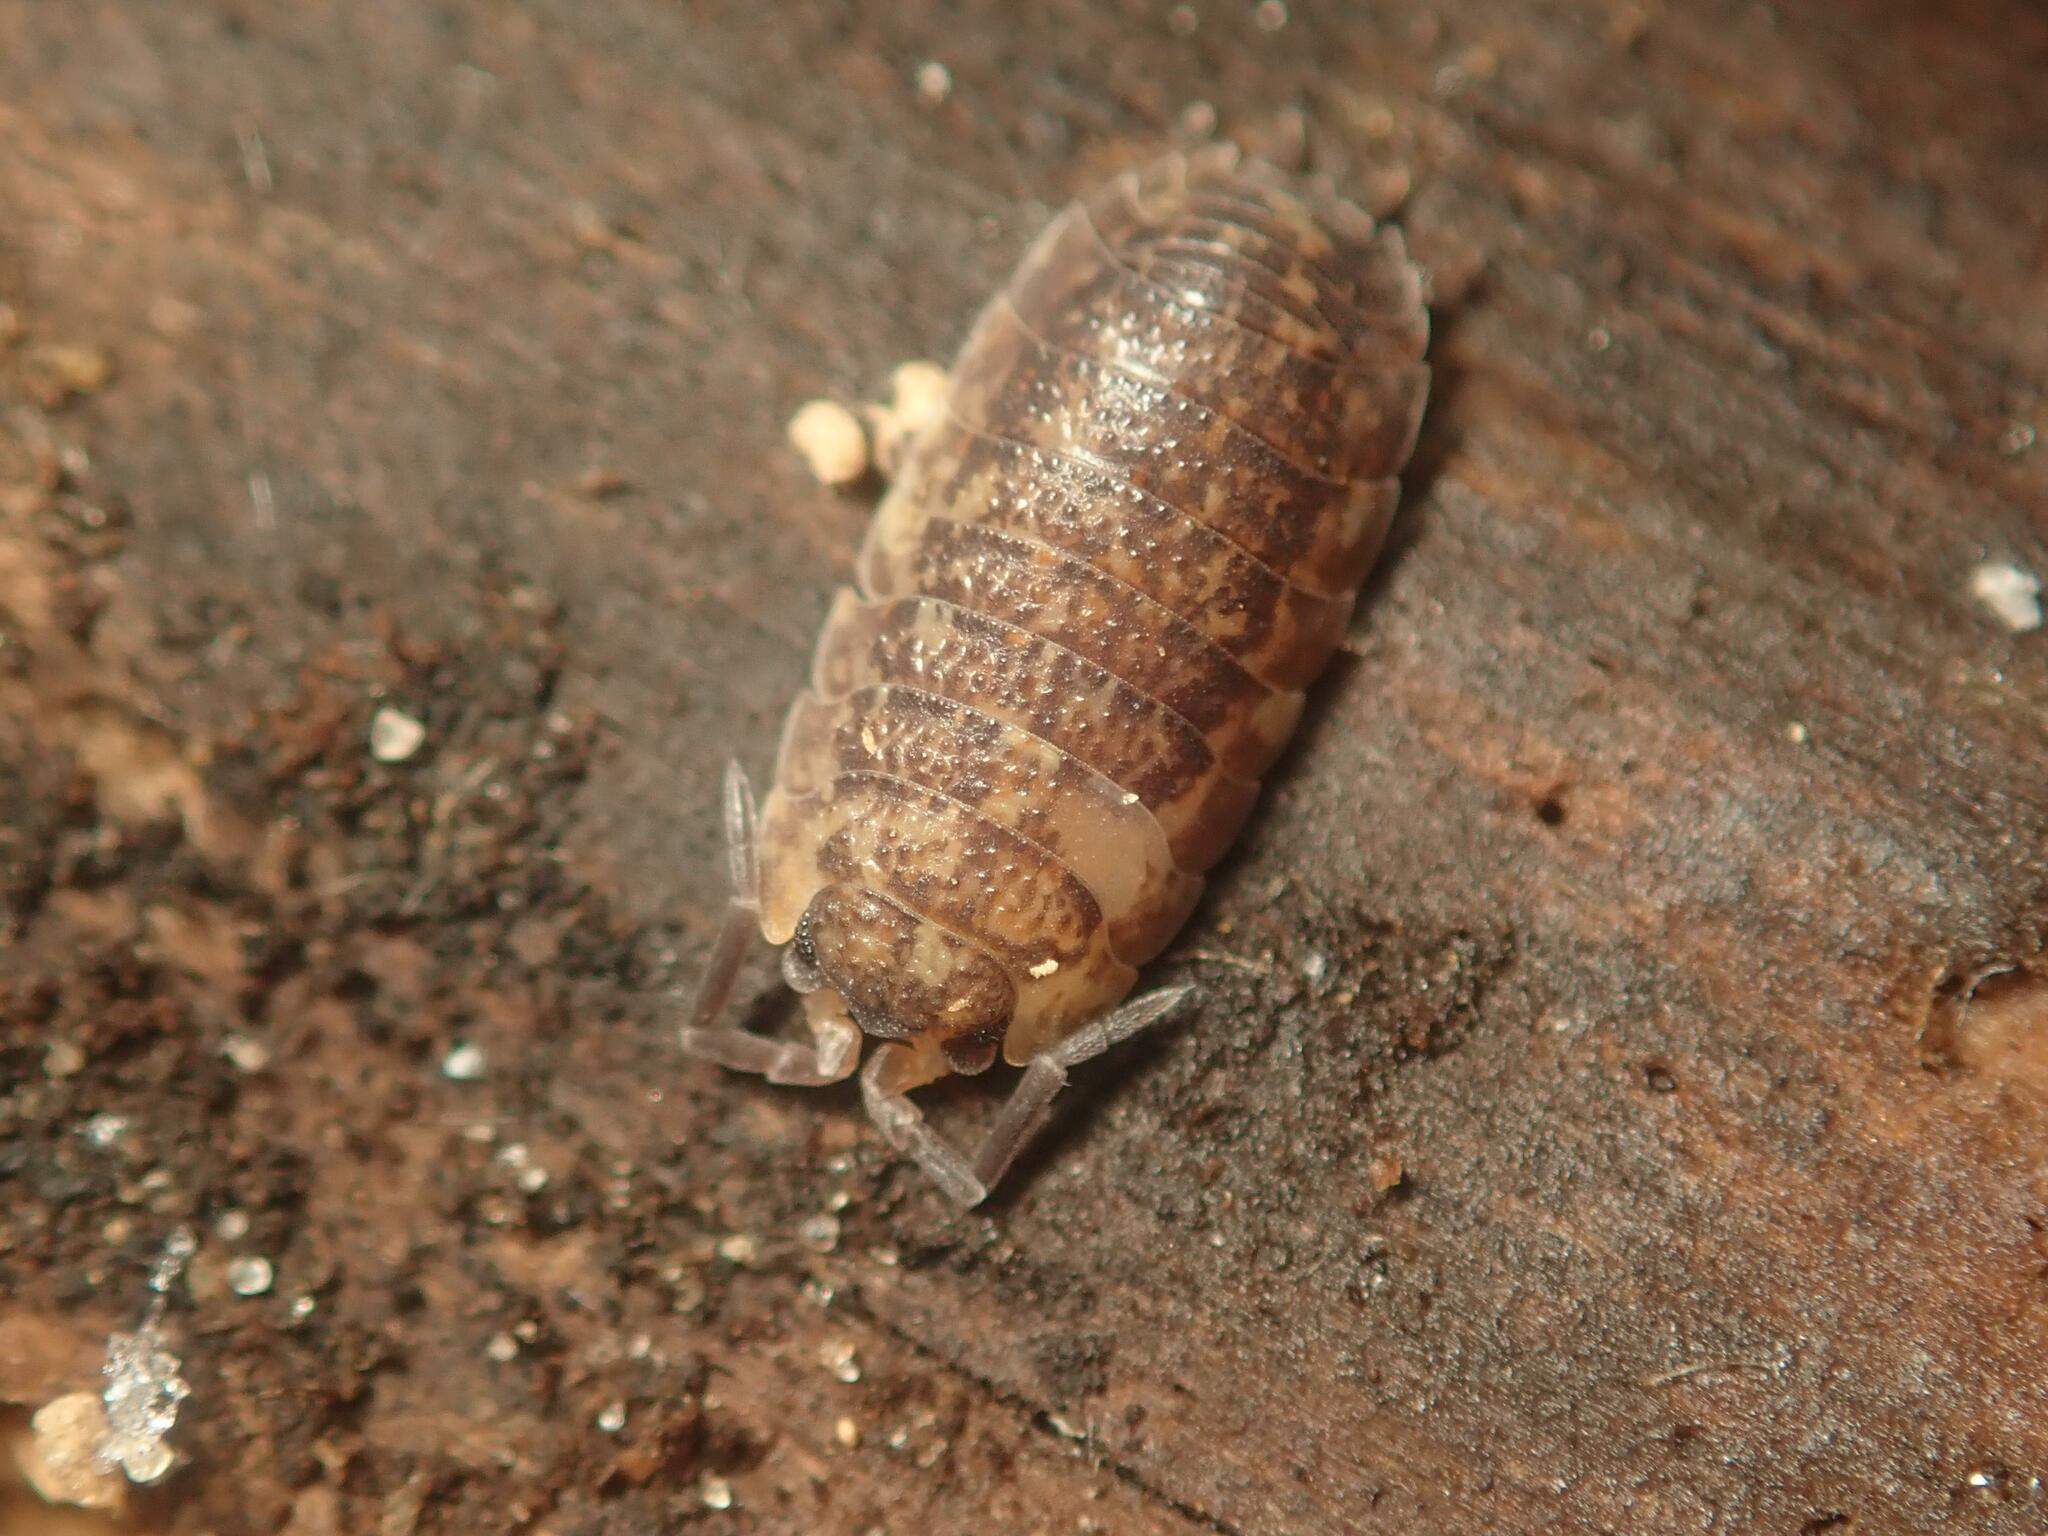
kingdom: Animalia
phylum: Arthropoda
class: Malacostraca
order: Isopoda
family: Porcellionidae
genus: Porcellio
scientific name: Porcellio scaber
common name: Common rough woodlouse
